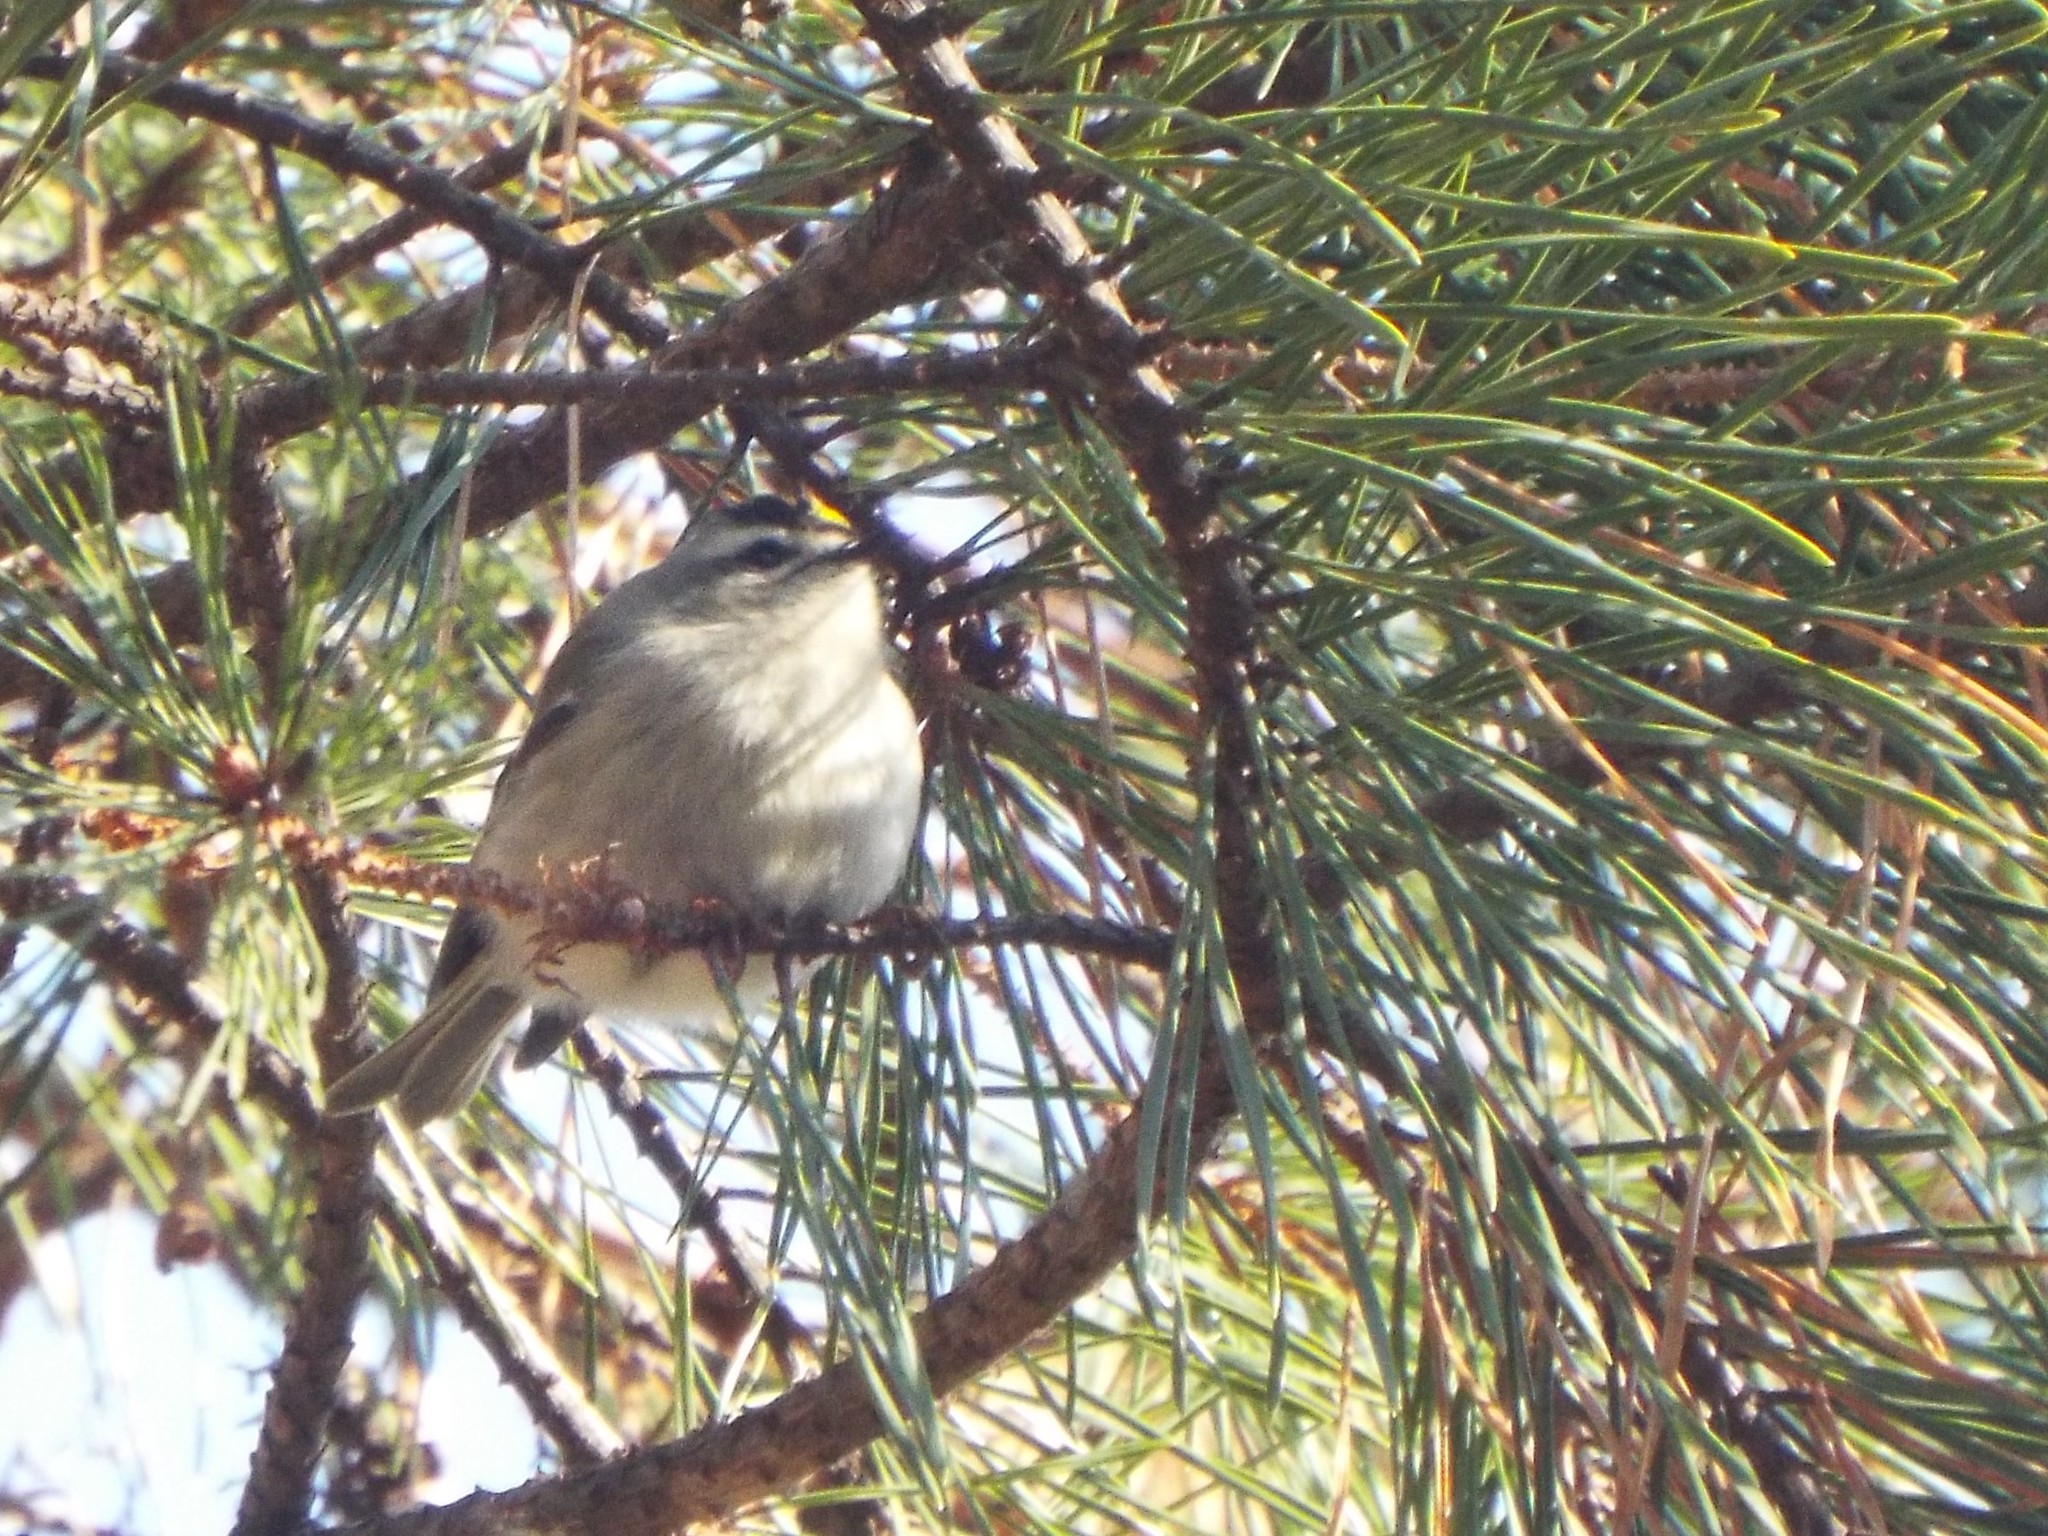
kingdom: Animalia
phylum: Chordata
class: Aves
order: Passeriformes
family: Regulidae
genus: Regulus
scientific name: Regulus satrapa
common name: Golden-crowned kinglet
